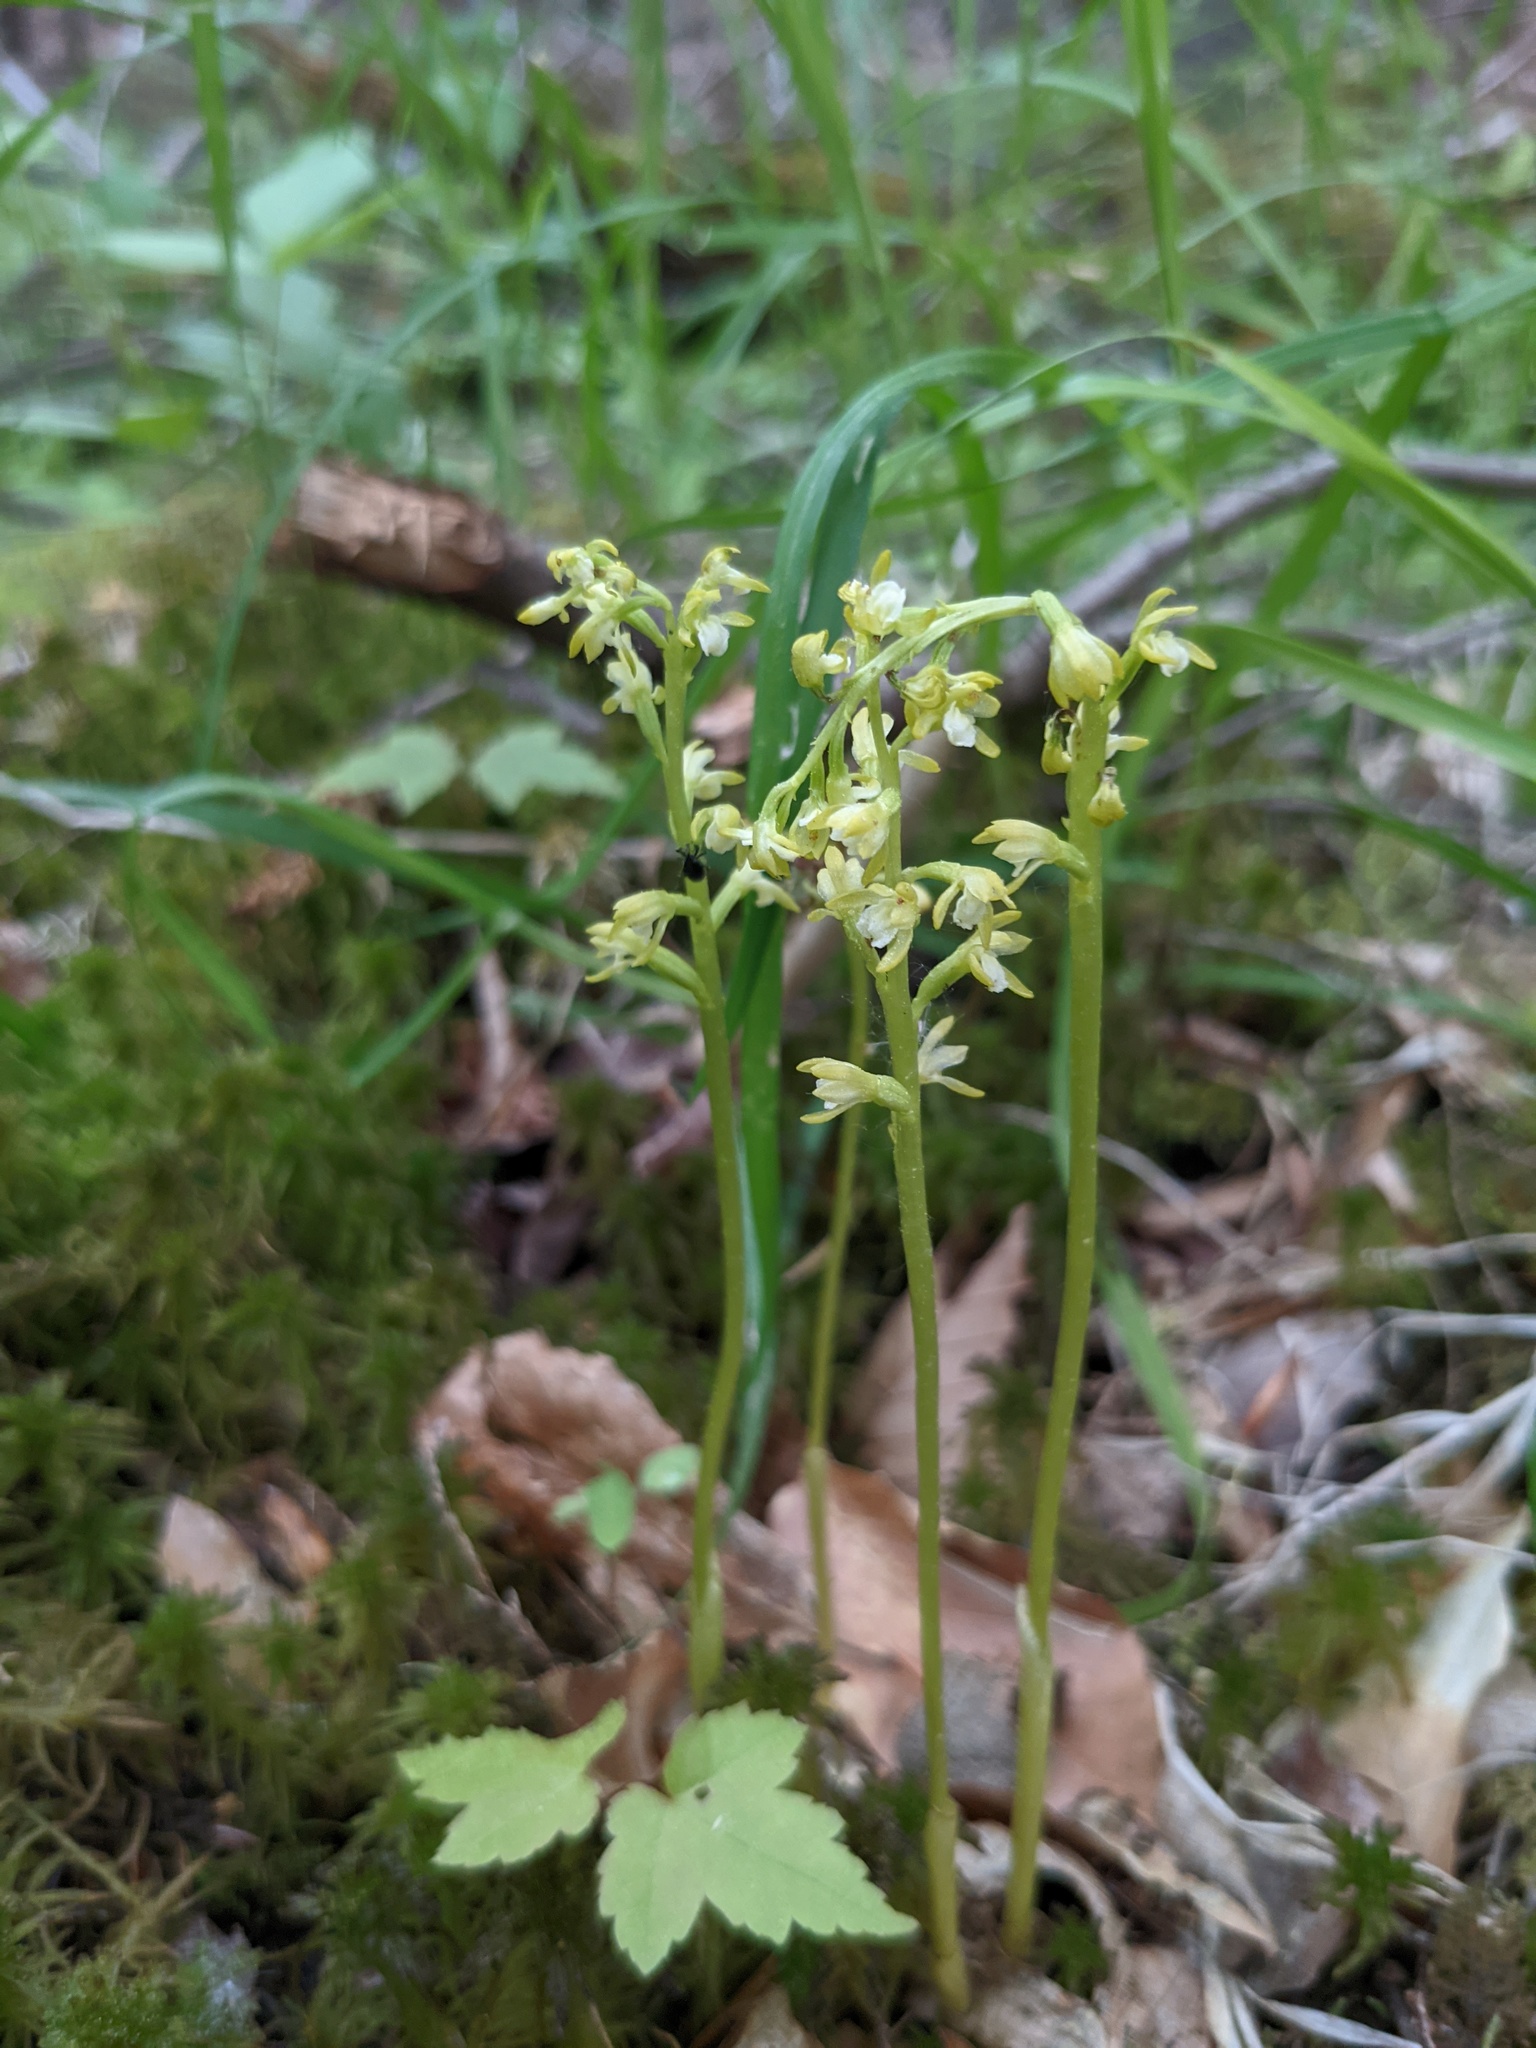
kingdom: Plantae
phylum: Tracheophyta
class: Liliopsida
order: Asparagales
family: Orchidaceae
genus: Corallorhiza
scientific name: Corallorhiza trifida
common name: Yellow coralroot
